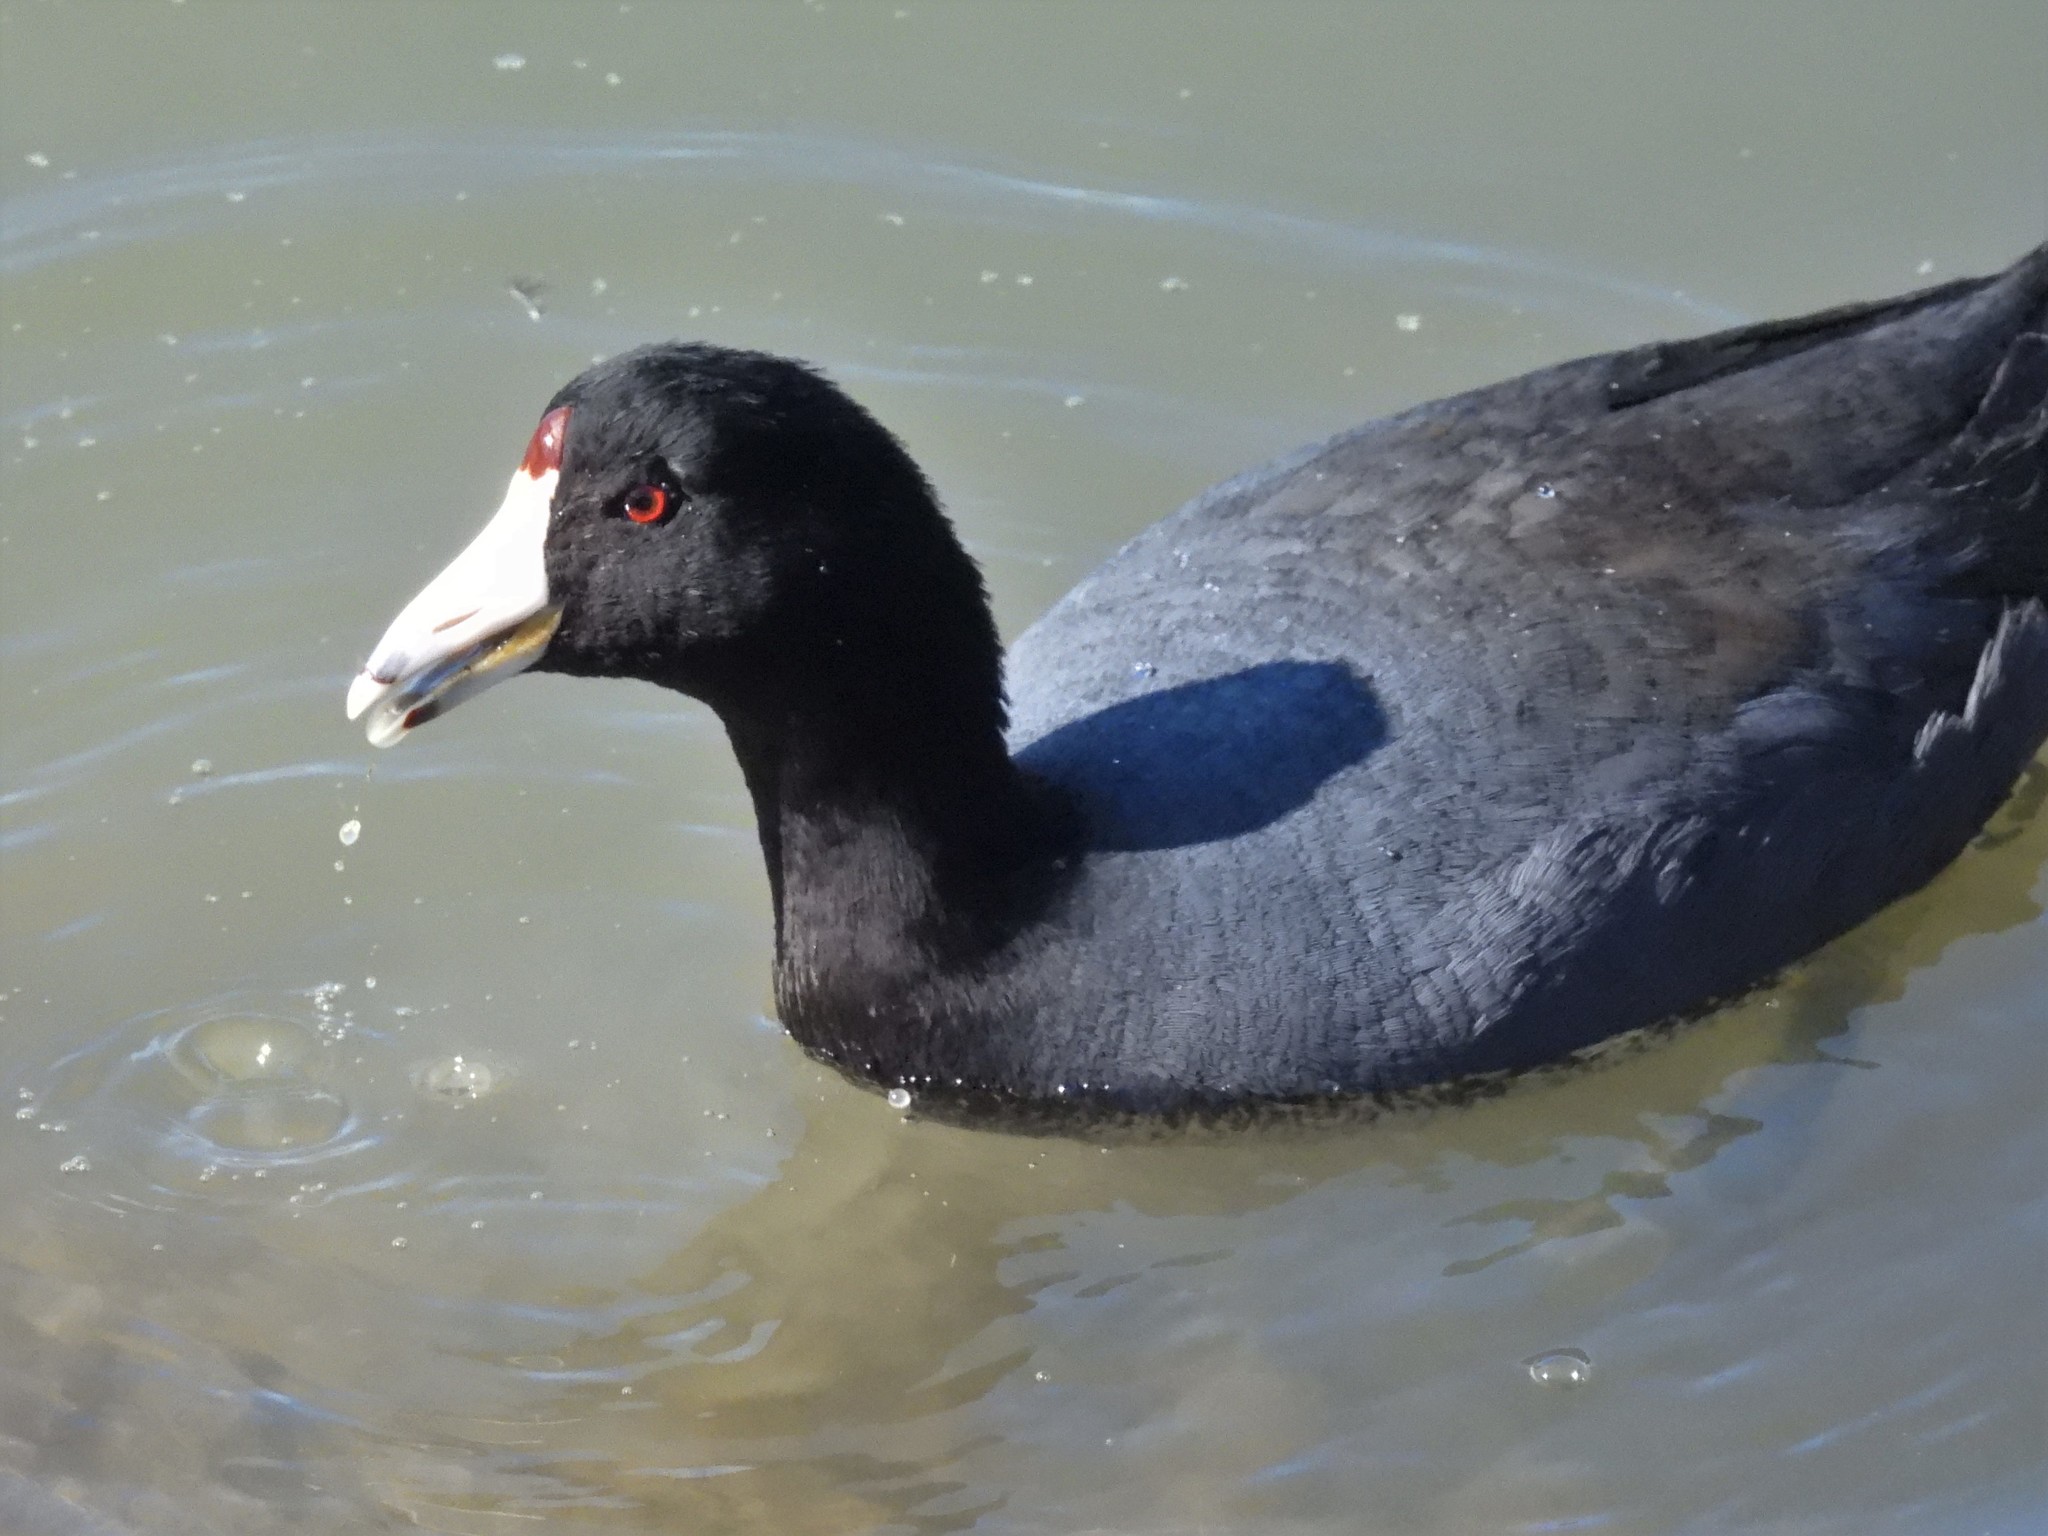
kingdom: Animalia
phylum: Chordata
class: Aves
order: Gruiformes
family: Rallidae
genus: Fulica
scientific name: Fulica americana
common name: American coot
